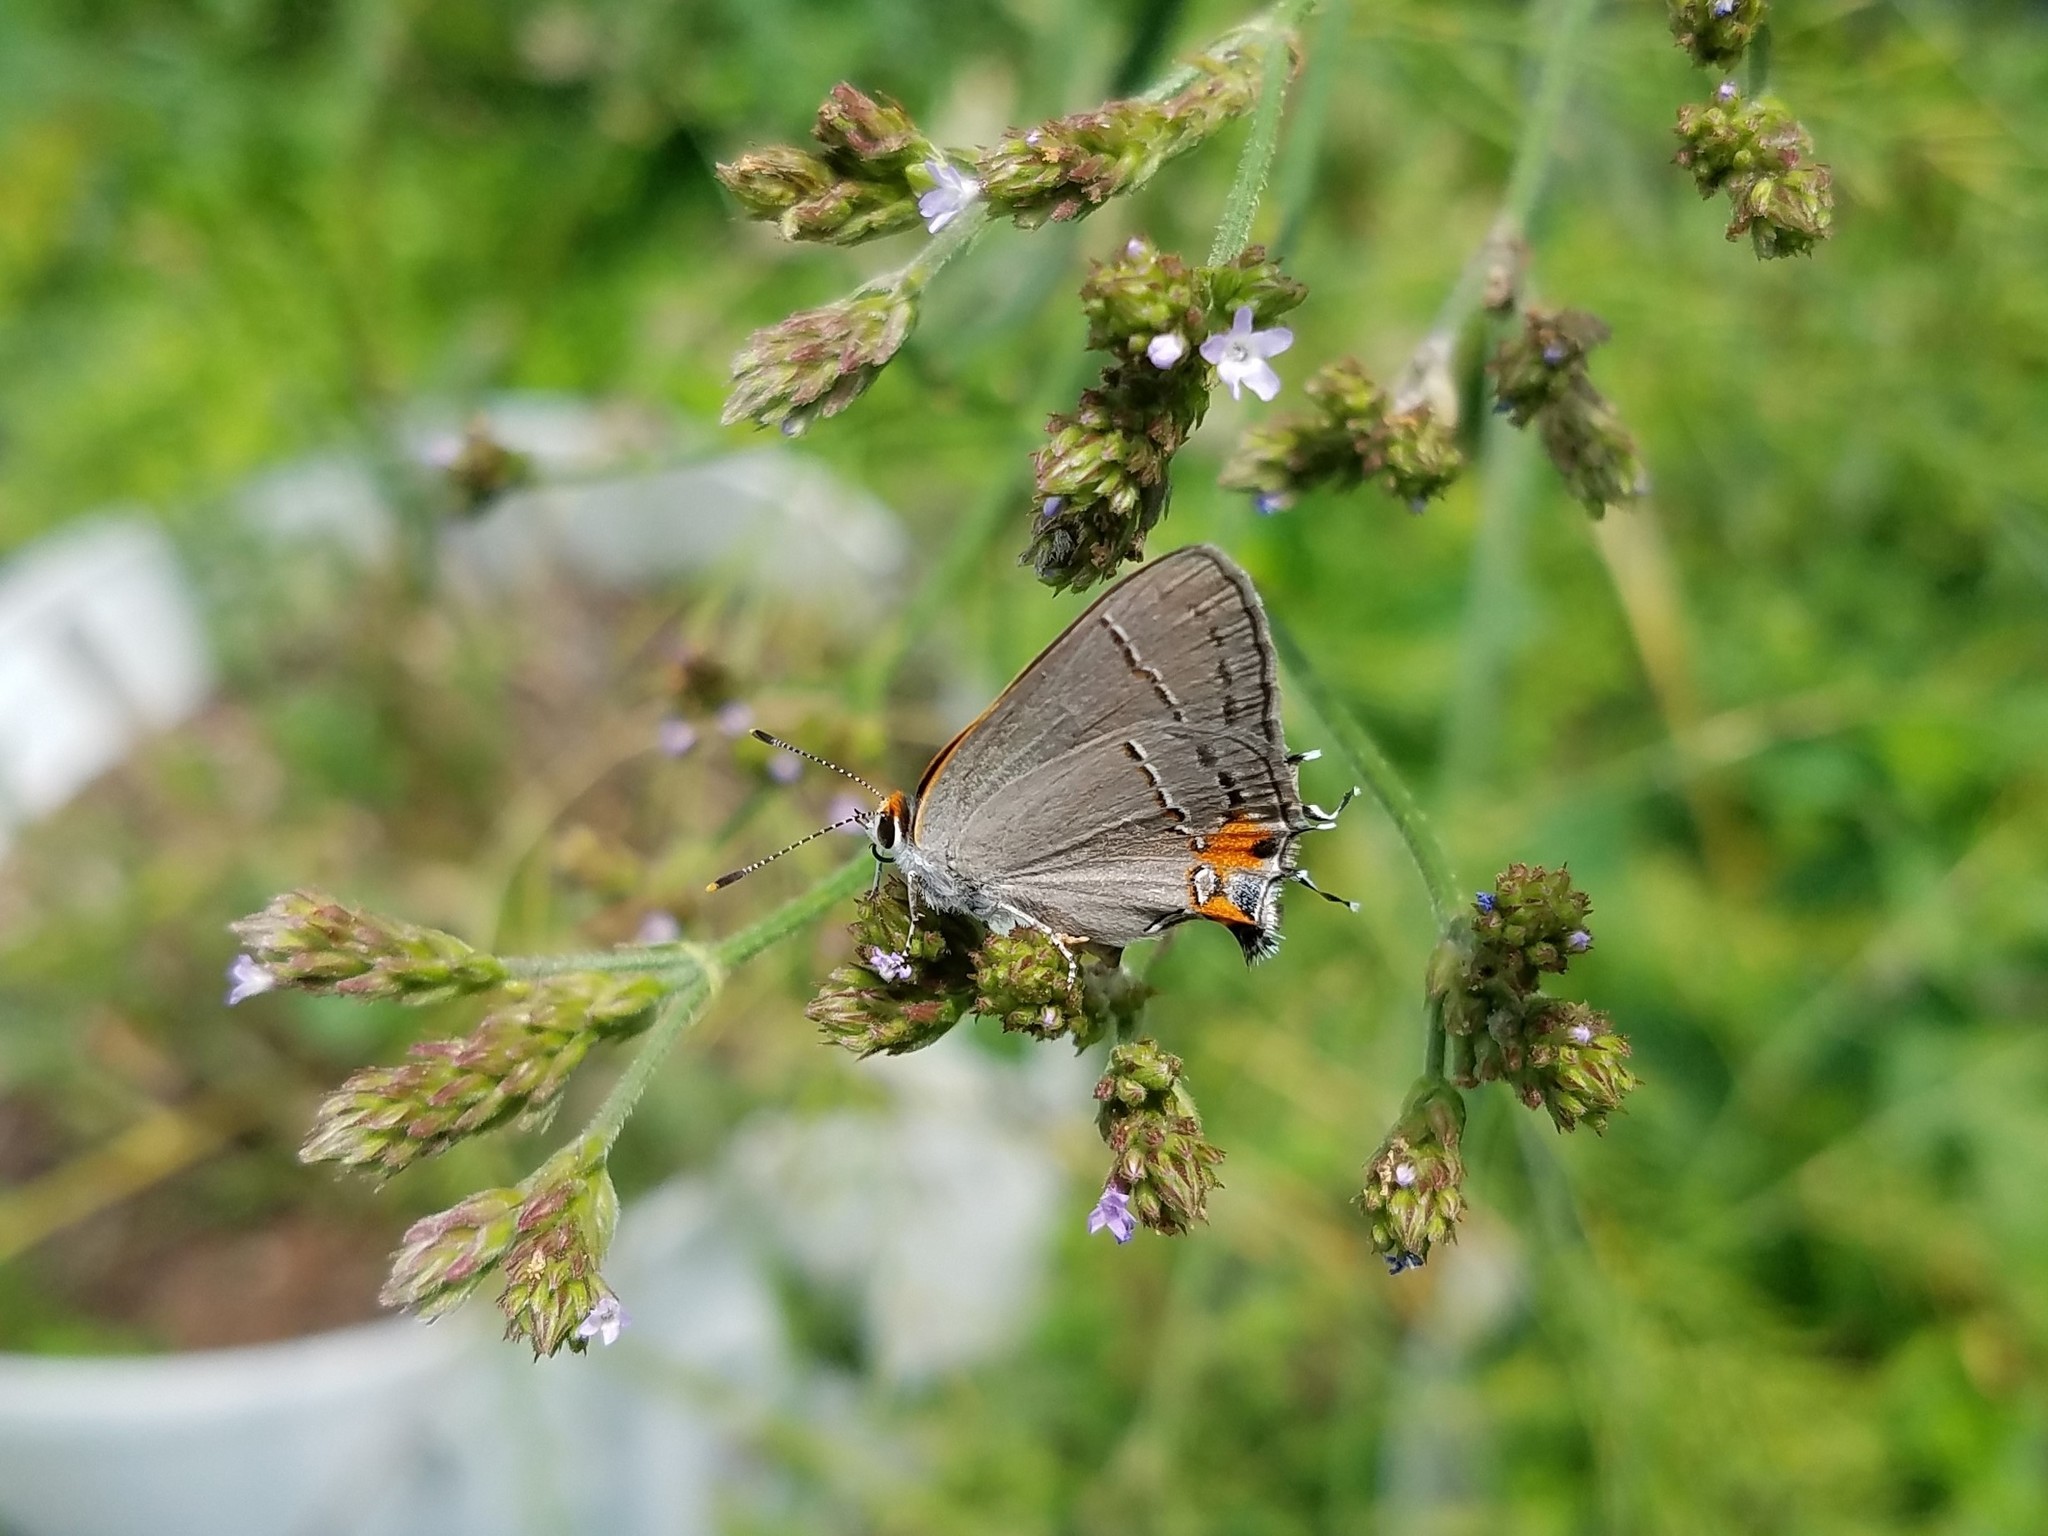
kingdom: Animalia
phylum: Arthropoda
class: Insecta
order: Lepidoptera
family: Lycaenidae
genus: Strymon
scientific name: Strymon melinus
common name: Gray hairstreak
